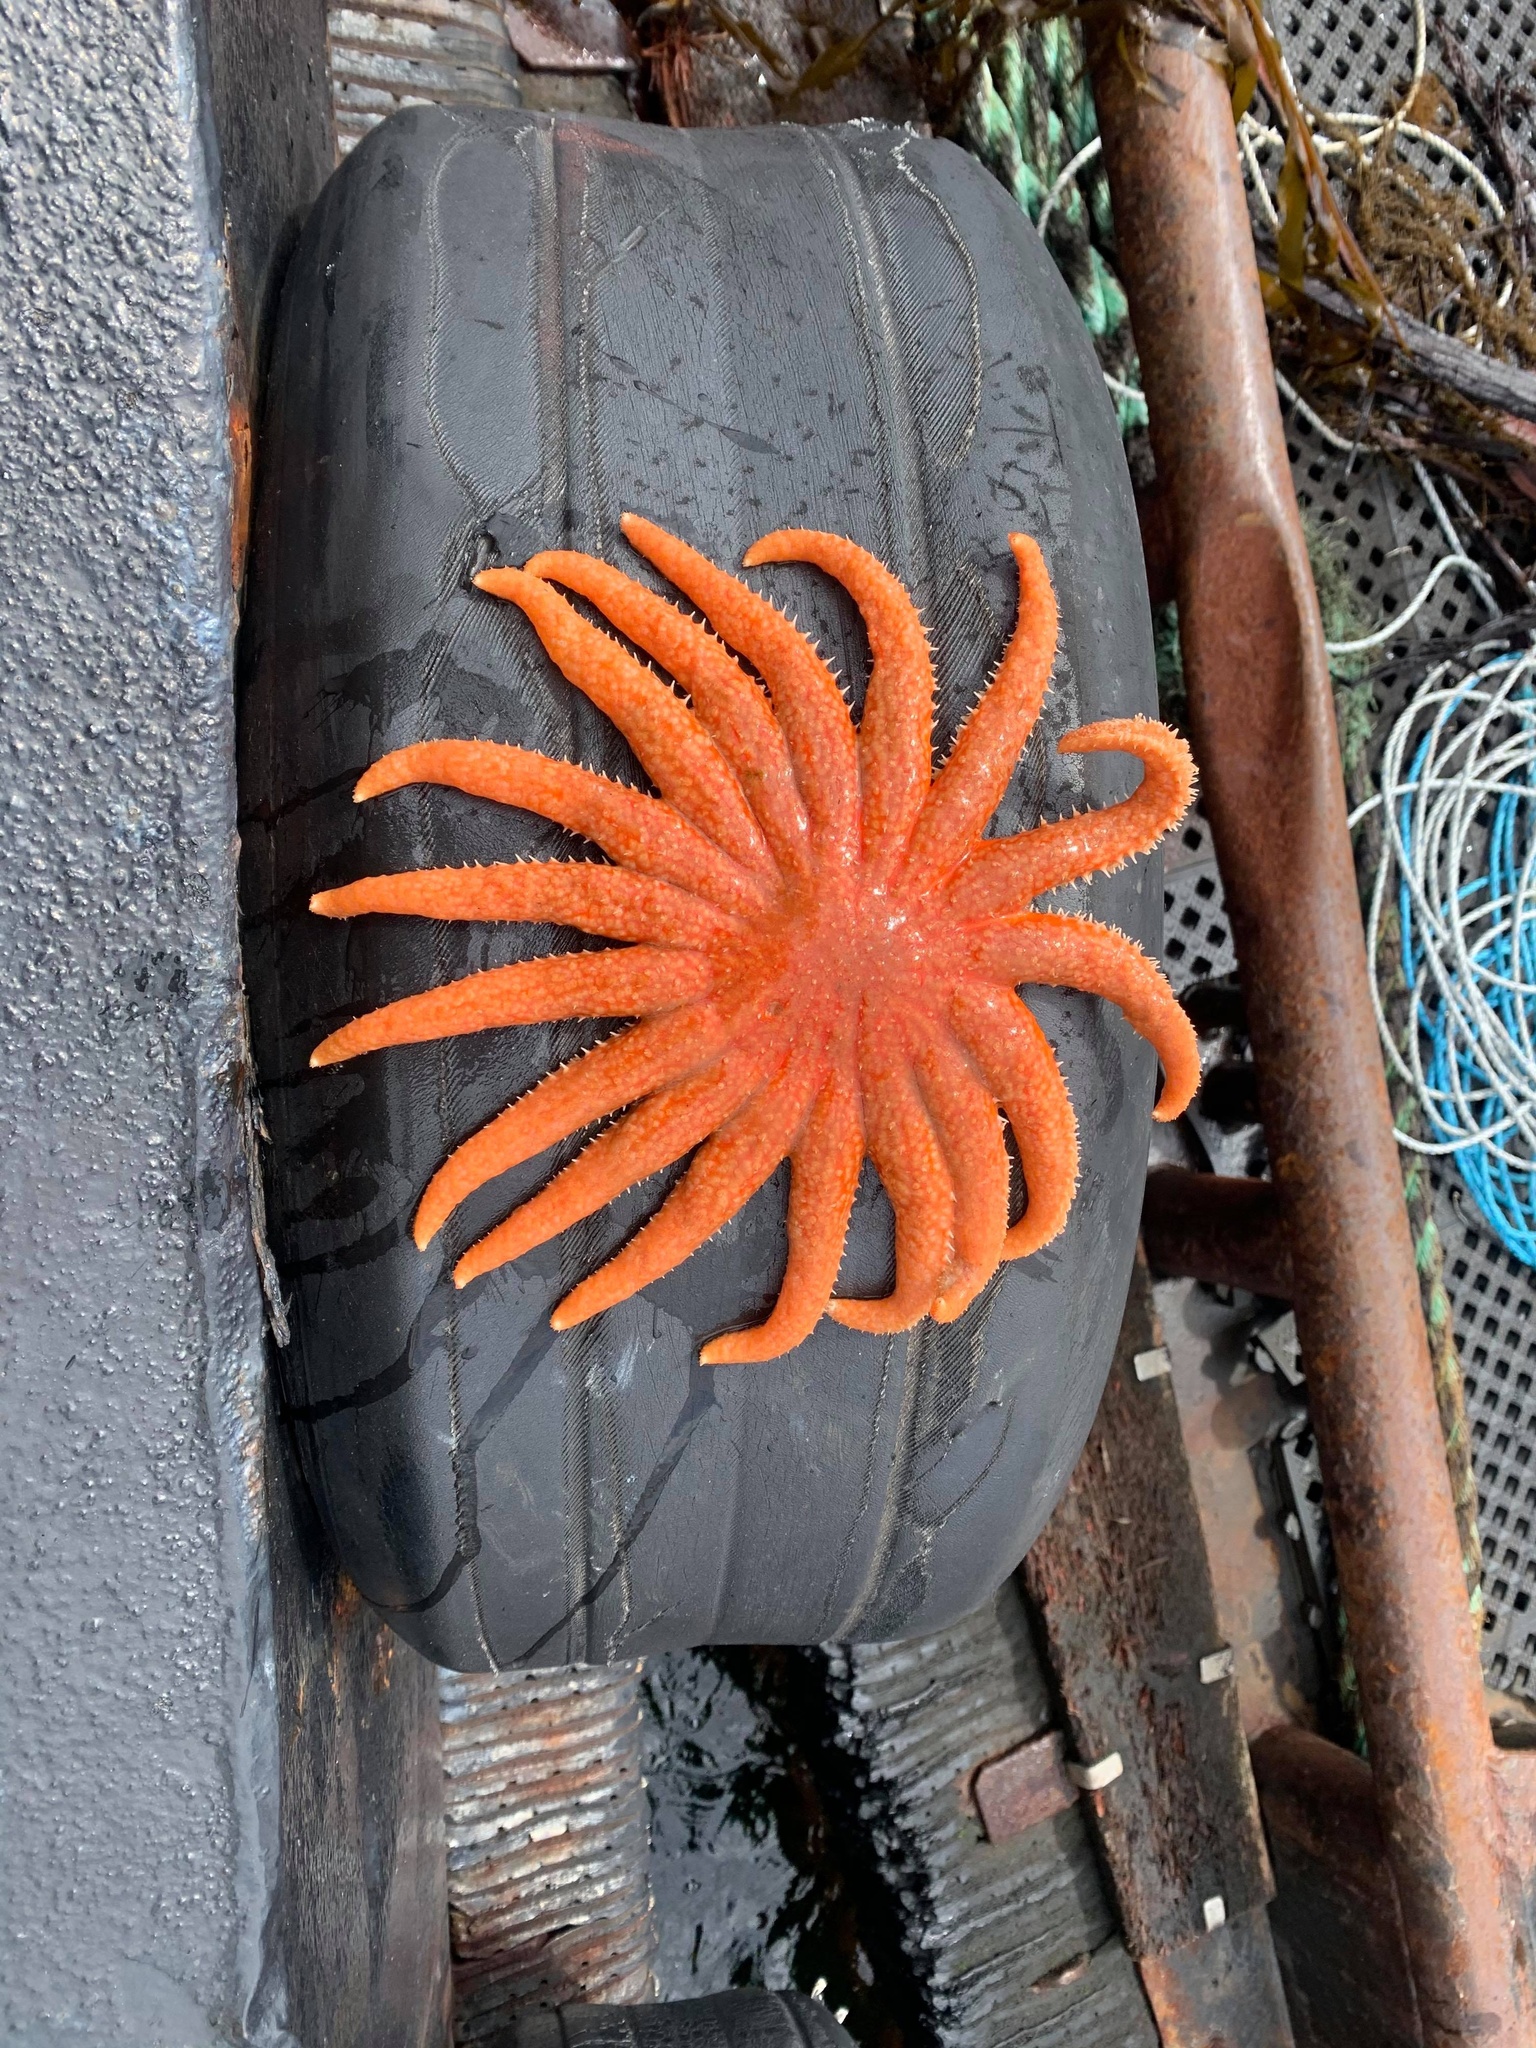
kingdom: Animalia
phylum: Echinodermata
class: Asteroidea
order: Forcipulatida
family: Asteriidae
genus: Pycnopodia
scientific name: Pycnopodia helianthoides
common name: Rag mop
